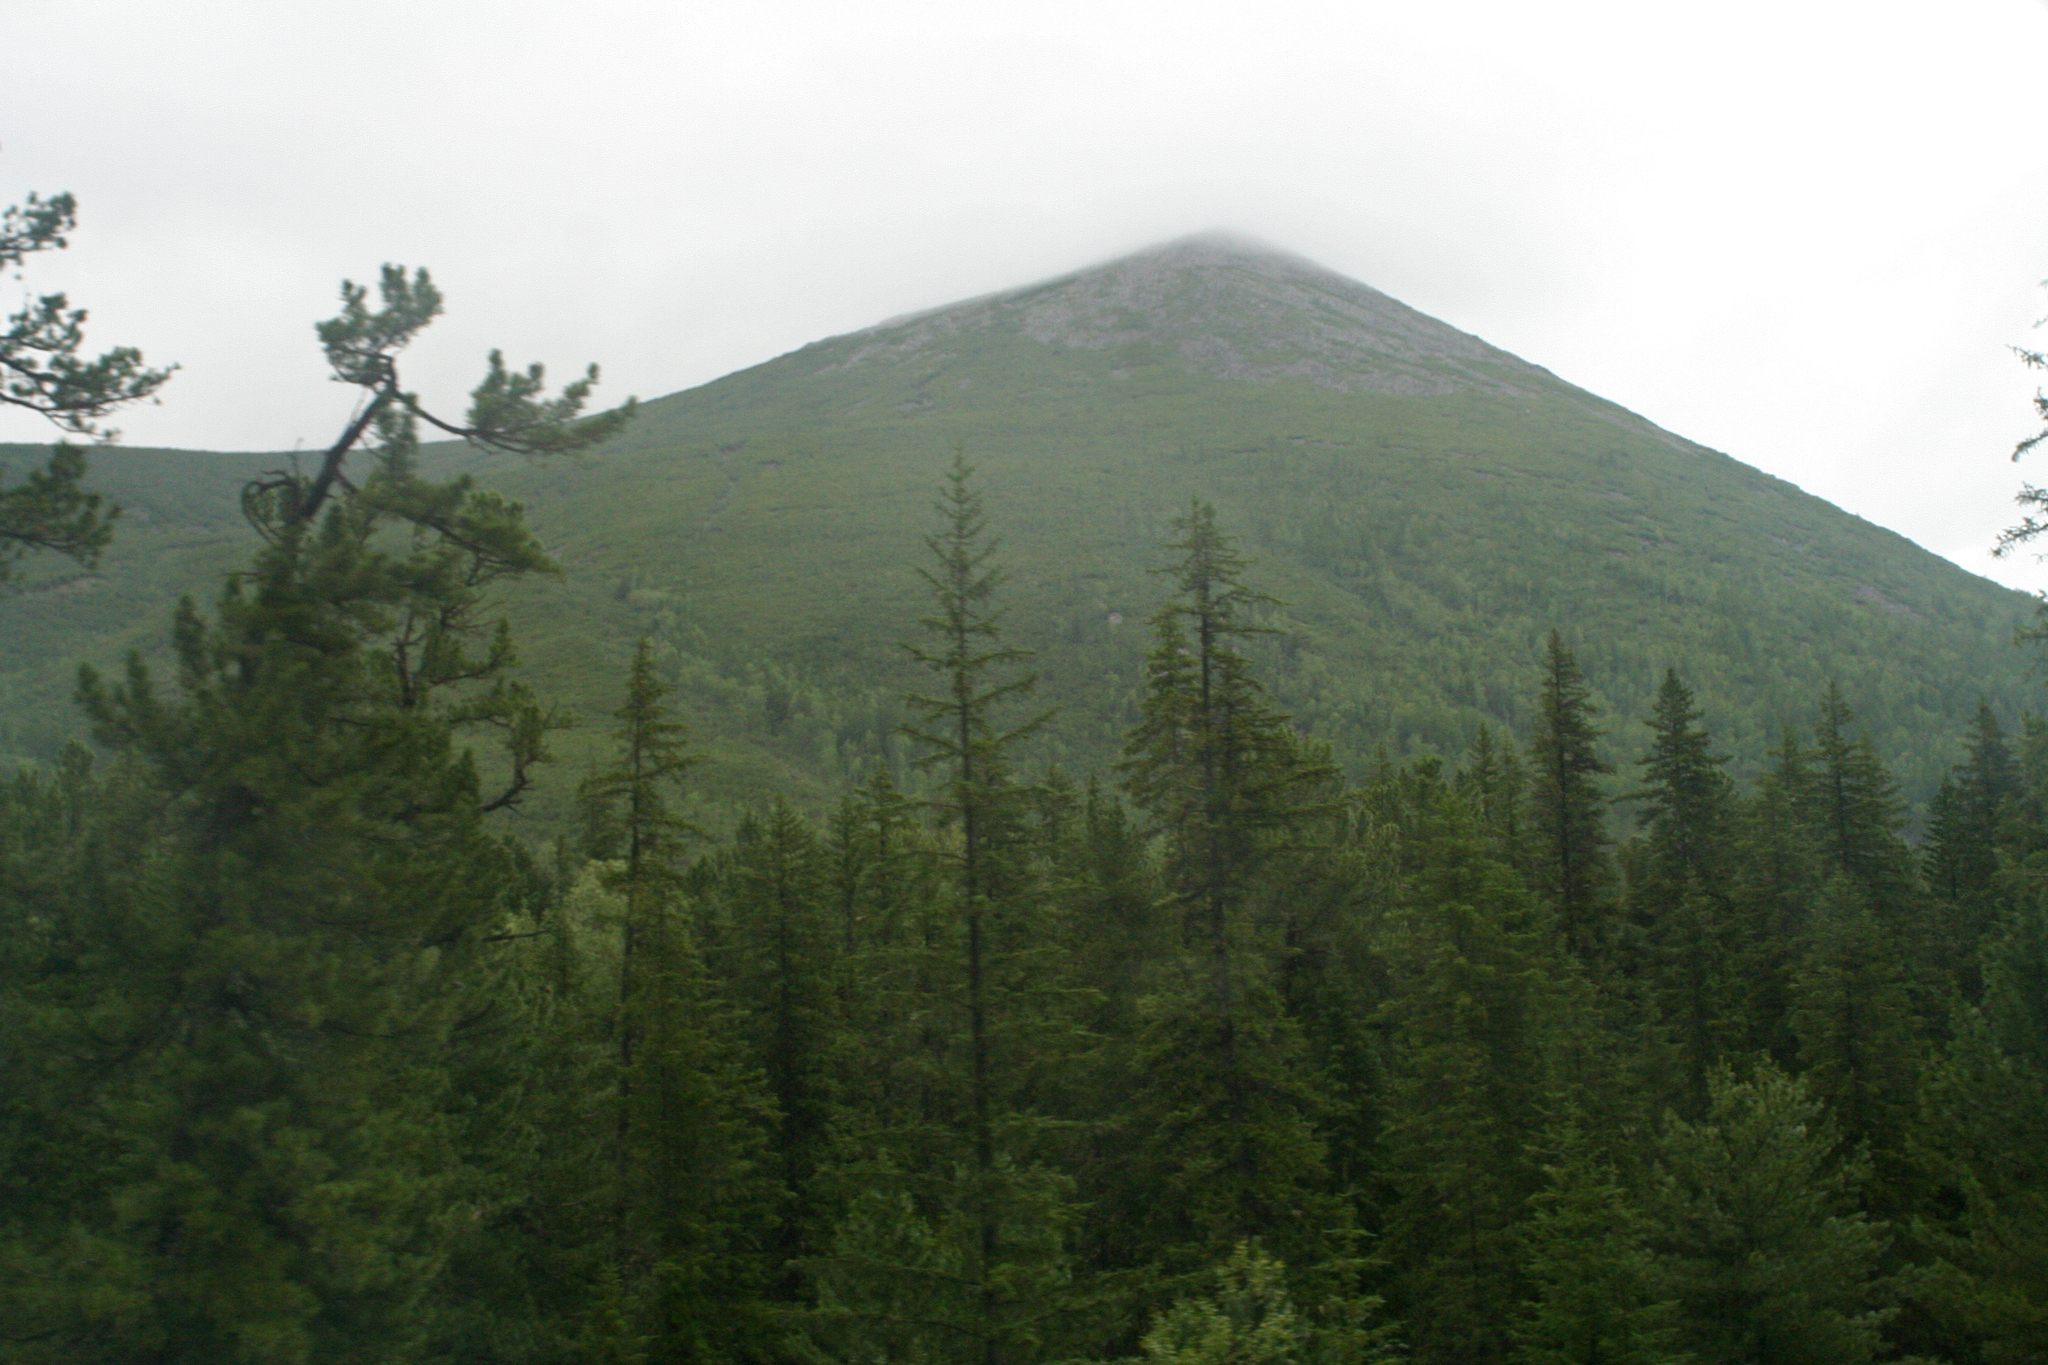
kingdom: Plantae
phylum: Tracheophyta
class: Pinopsida
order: Pinales
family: Pinaceae
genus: Picea
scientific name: Picea obovata
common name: Siberian spruce
